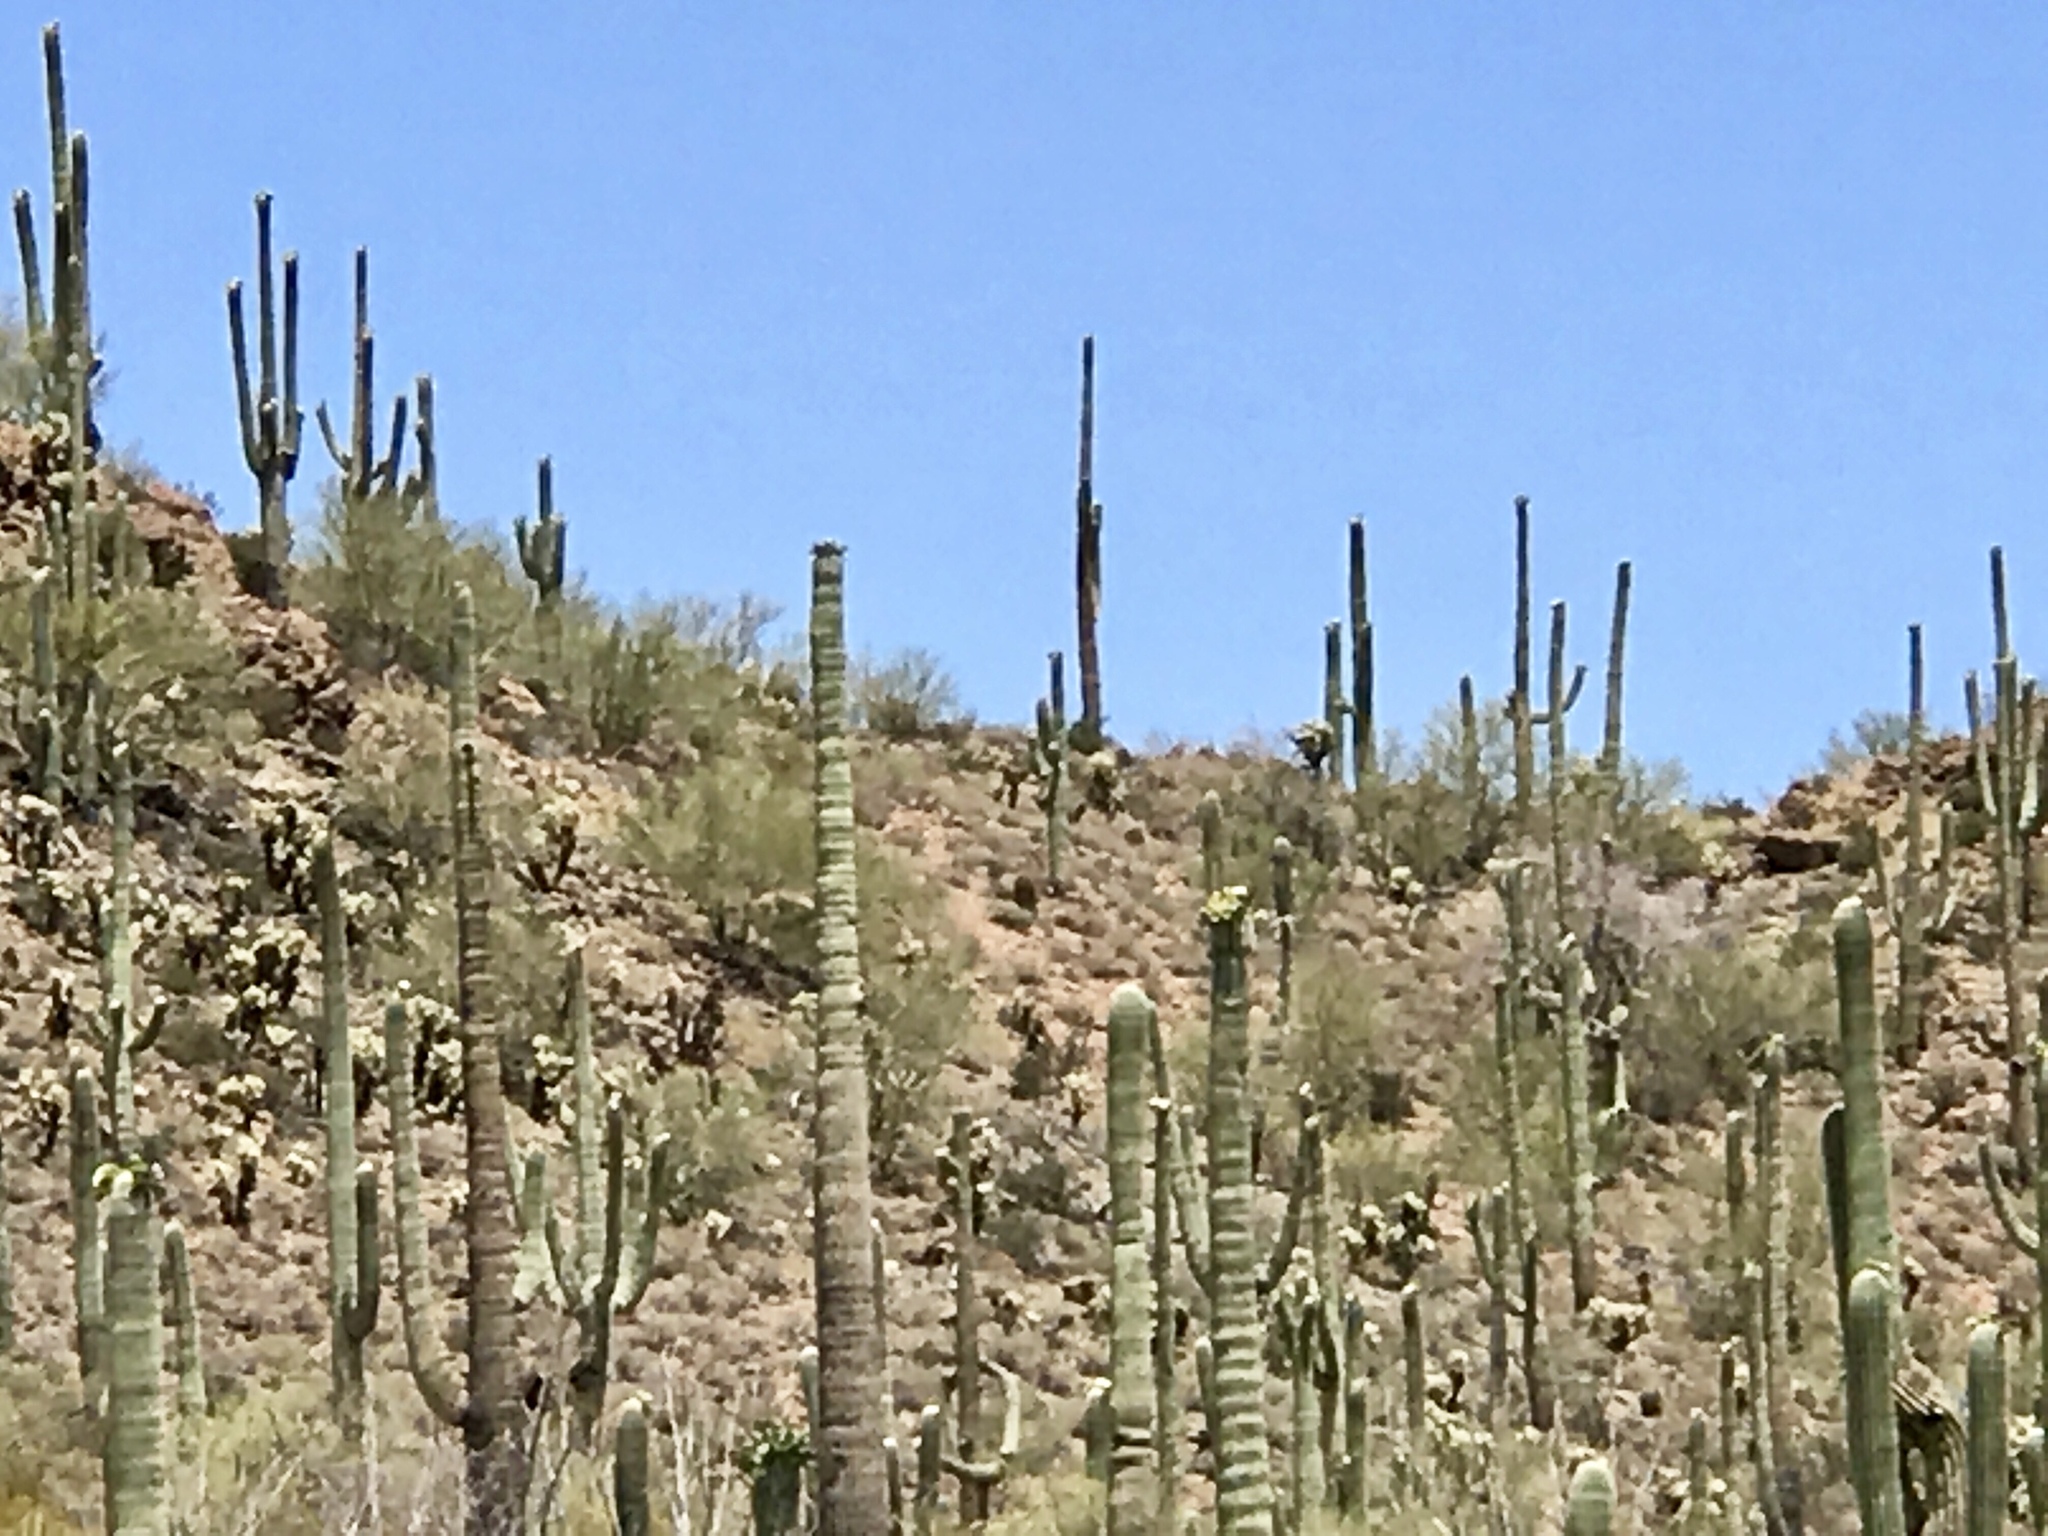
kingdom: Plantae
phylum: Tracheophyta
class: Magnoliopsida
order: Caryophyllales
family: Cactaceae
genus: Carnegiea
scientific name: Carnegiea gigantea
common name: Saguaro
